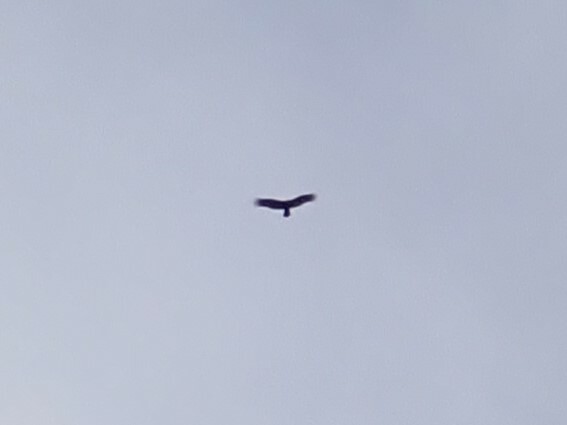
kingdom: Animalia
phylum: Chordata
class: Aves
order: Accipitriformes
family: Cathartidae
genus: Cathartes
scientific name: Cathartes aura
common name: Turkey vulture
